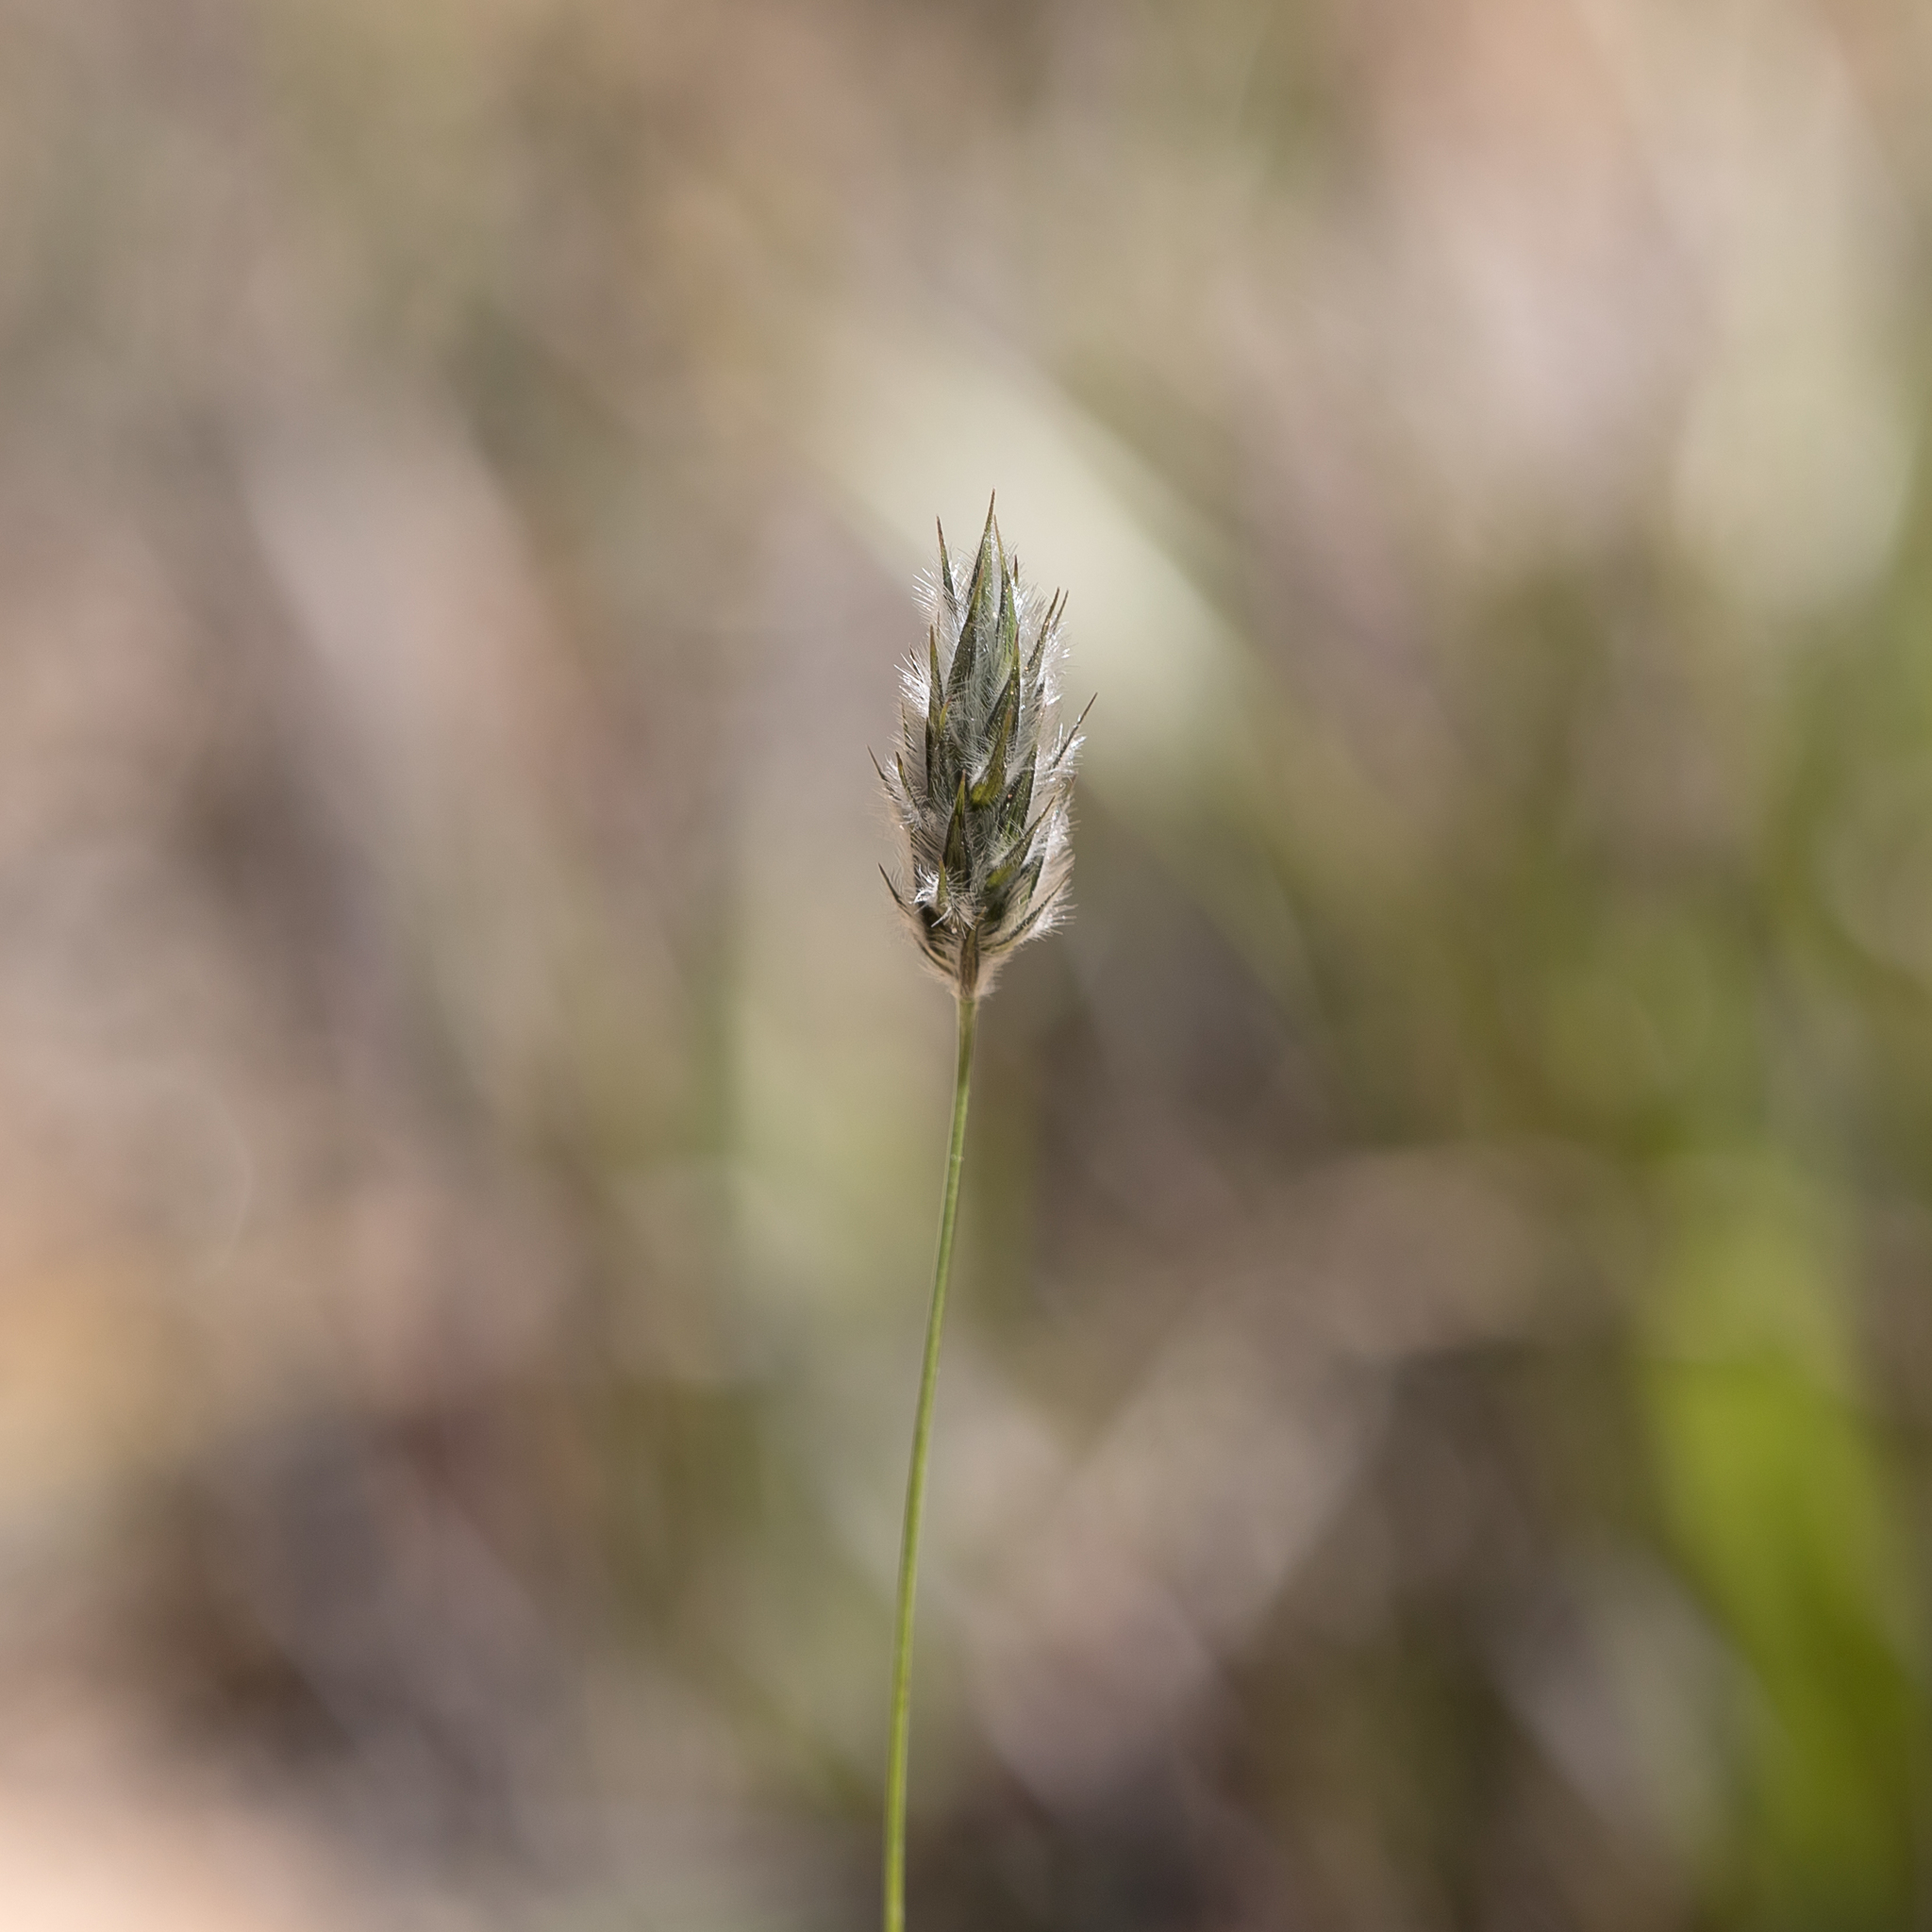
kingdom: Plantae
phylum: Tracheophyta
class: Liliopsida
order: Poales
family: Poaceae
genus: Neurachne
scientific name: Neurachne alopecuroidea
